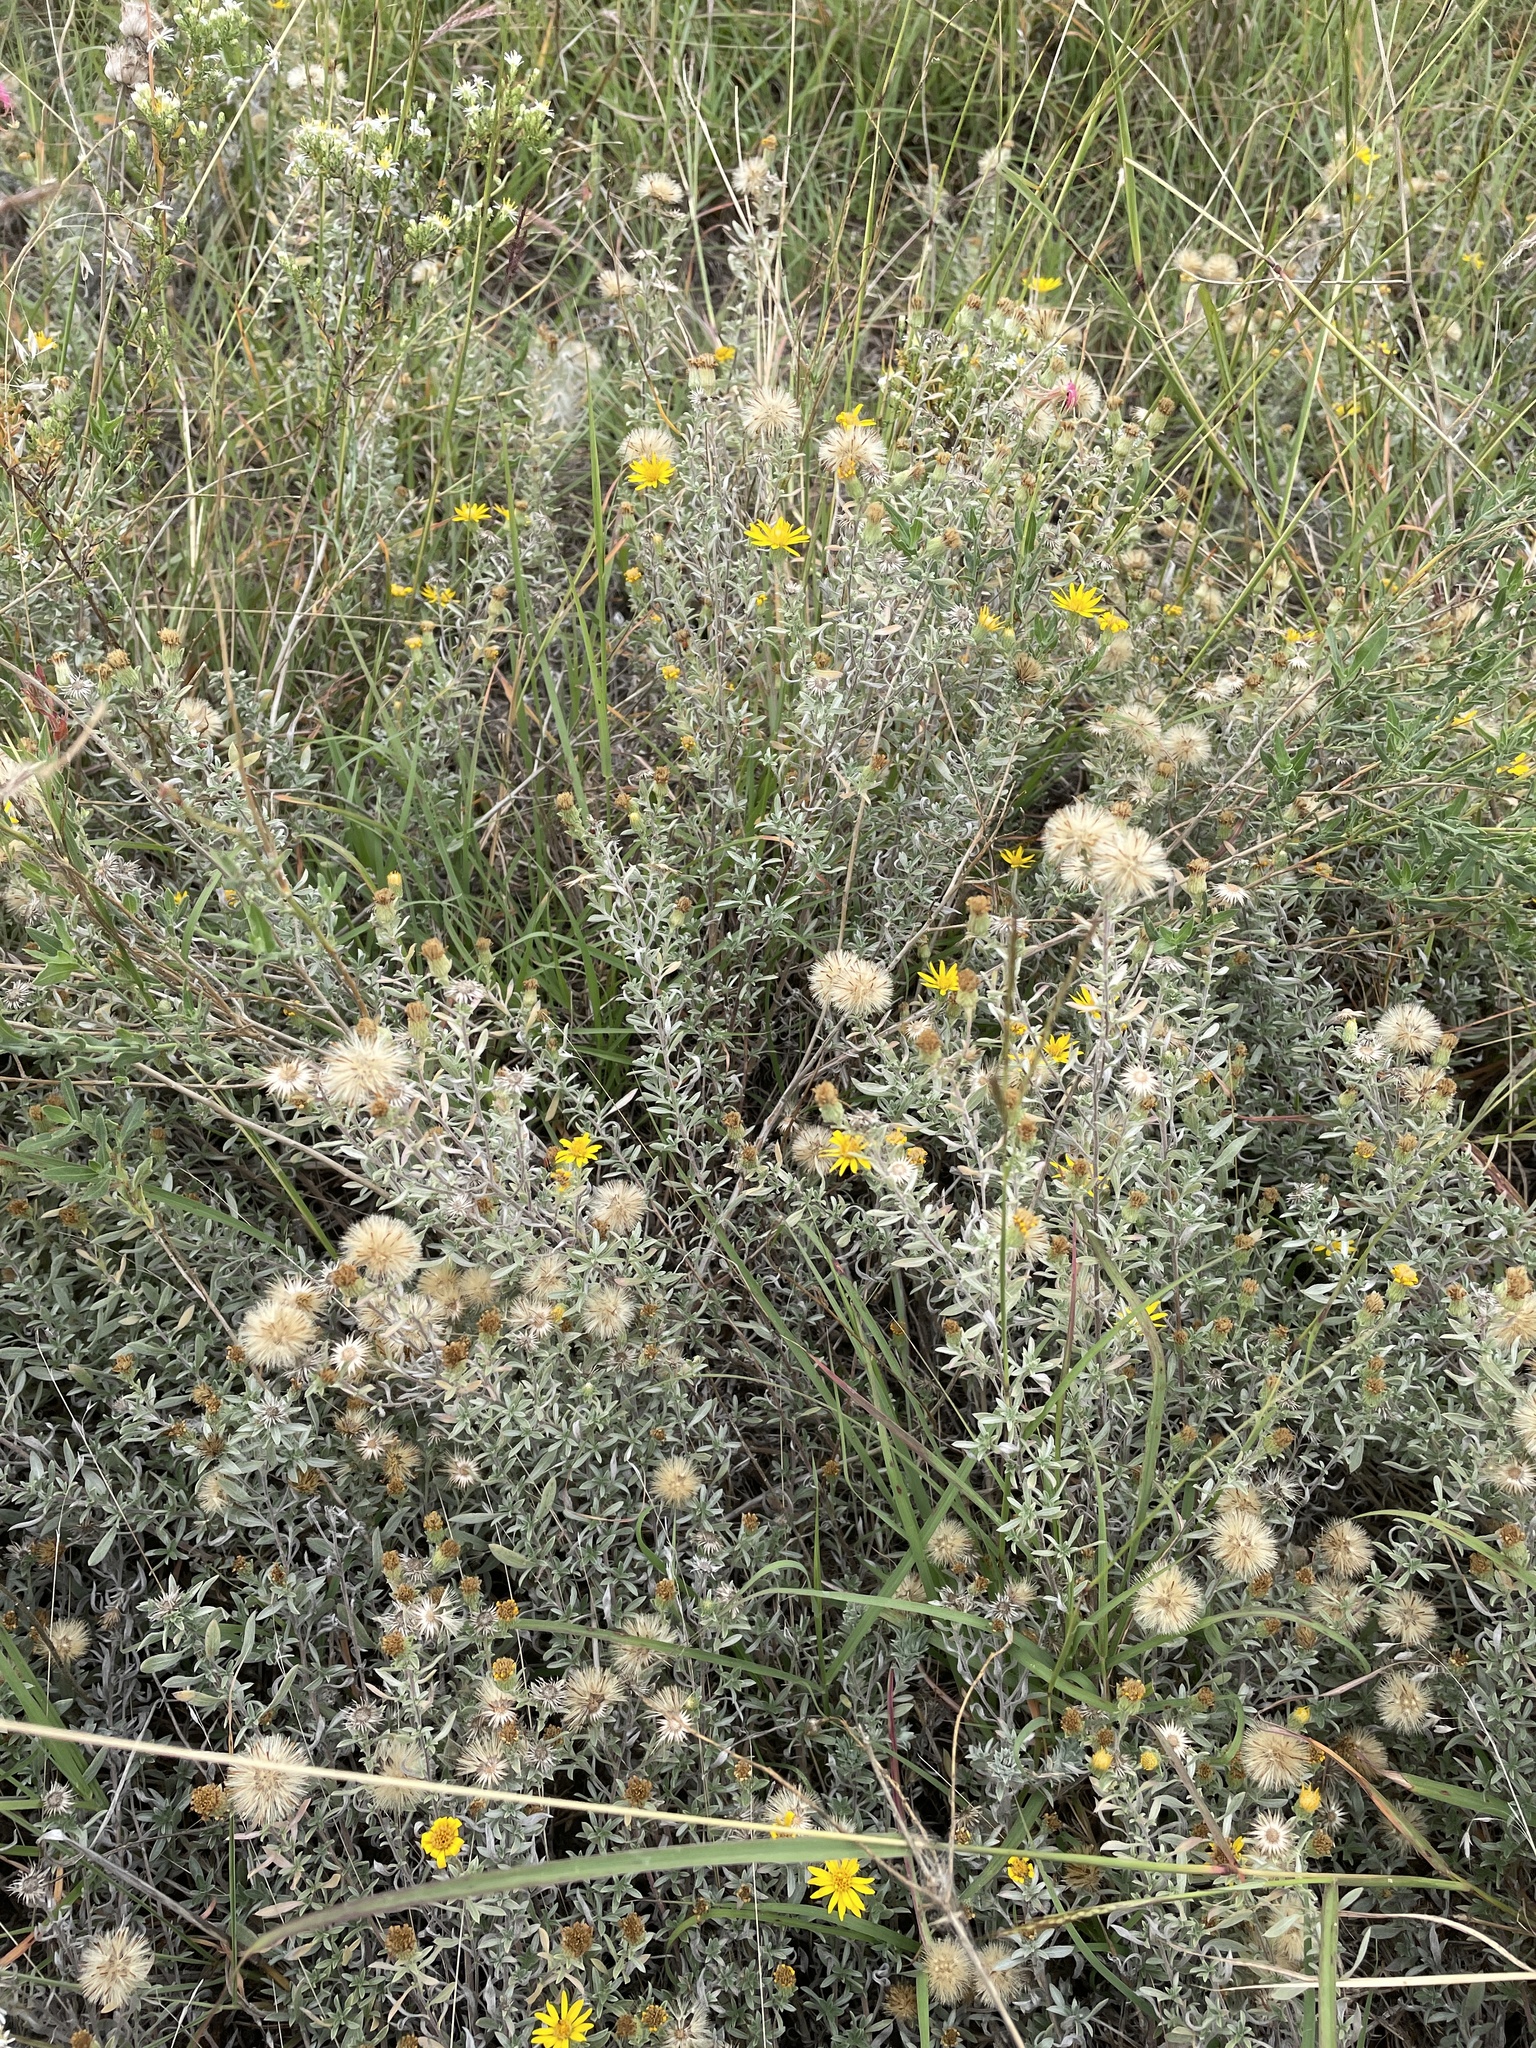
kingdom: Plantae
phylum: Tracheophyta
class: Magnoliopsida
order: Asterales
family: Asteraceae
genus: Heterotheca
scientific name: Heterotheca canescens
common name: Hoary golden-aster
